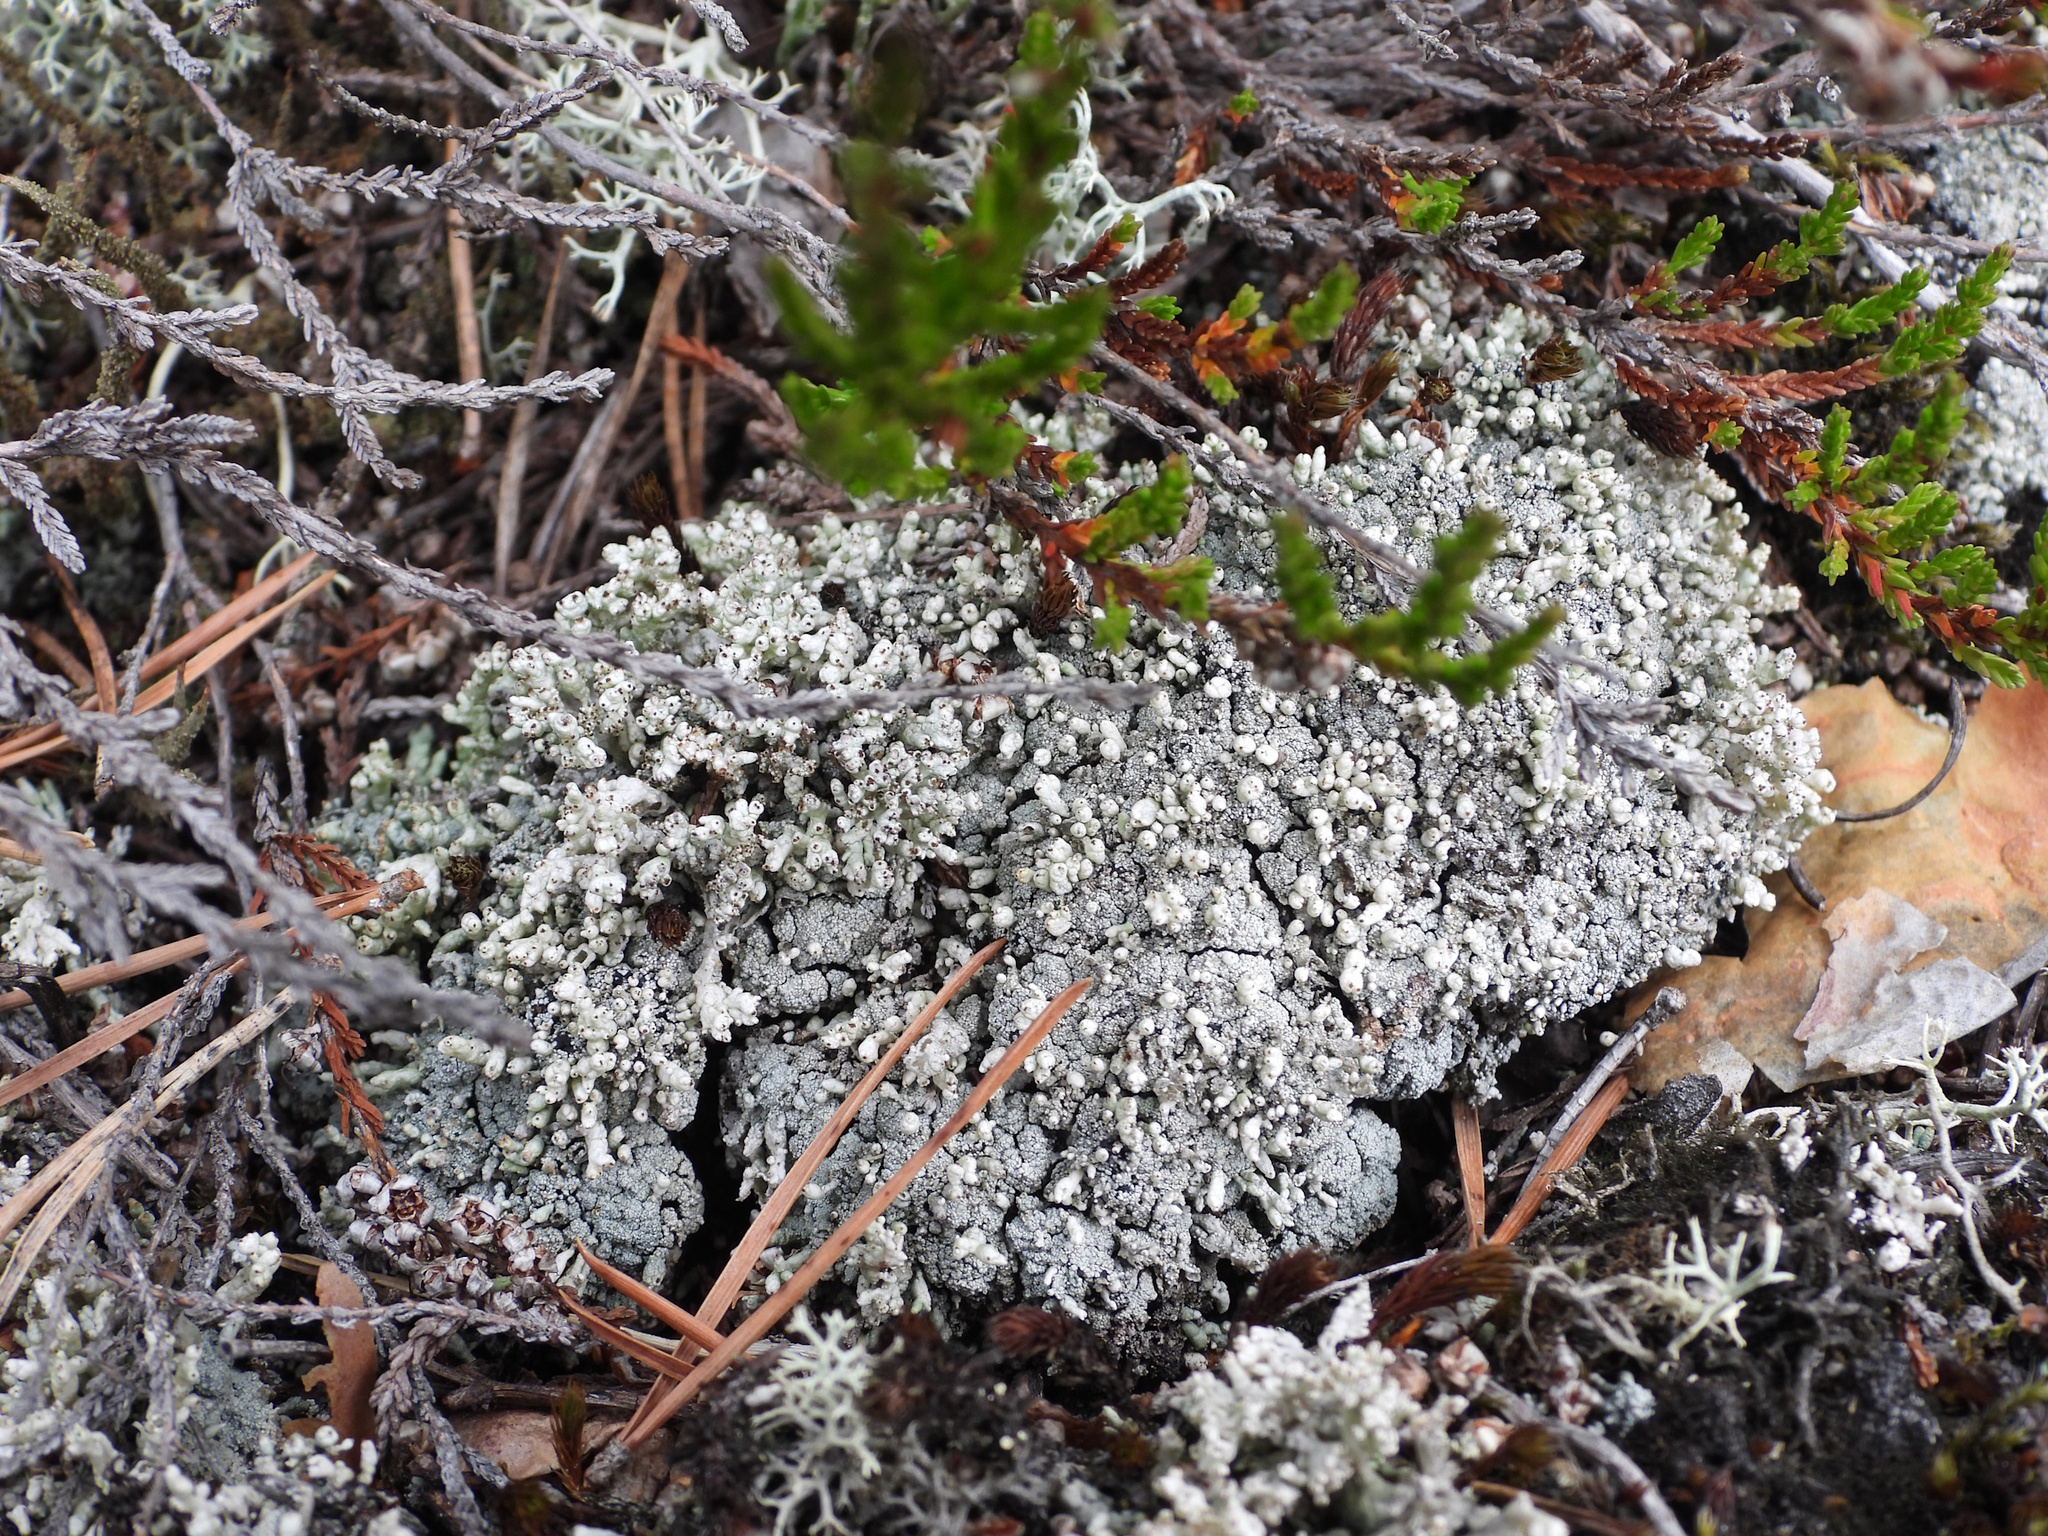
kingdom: Fungi
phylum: Ascomycota
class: Lecanoromycetes
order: Lecanorales
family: Cladoniaceae
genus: Pycnothelia
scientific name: Pycnothelia papillaria
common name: Nipple lichen
